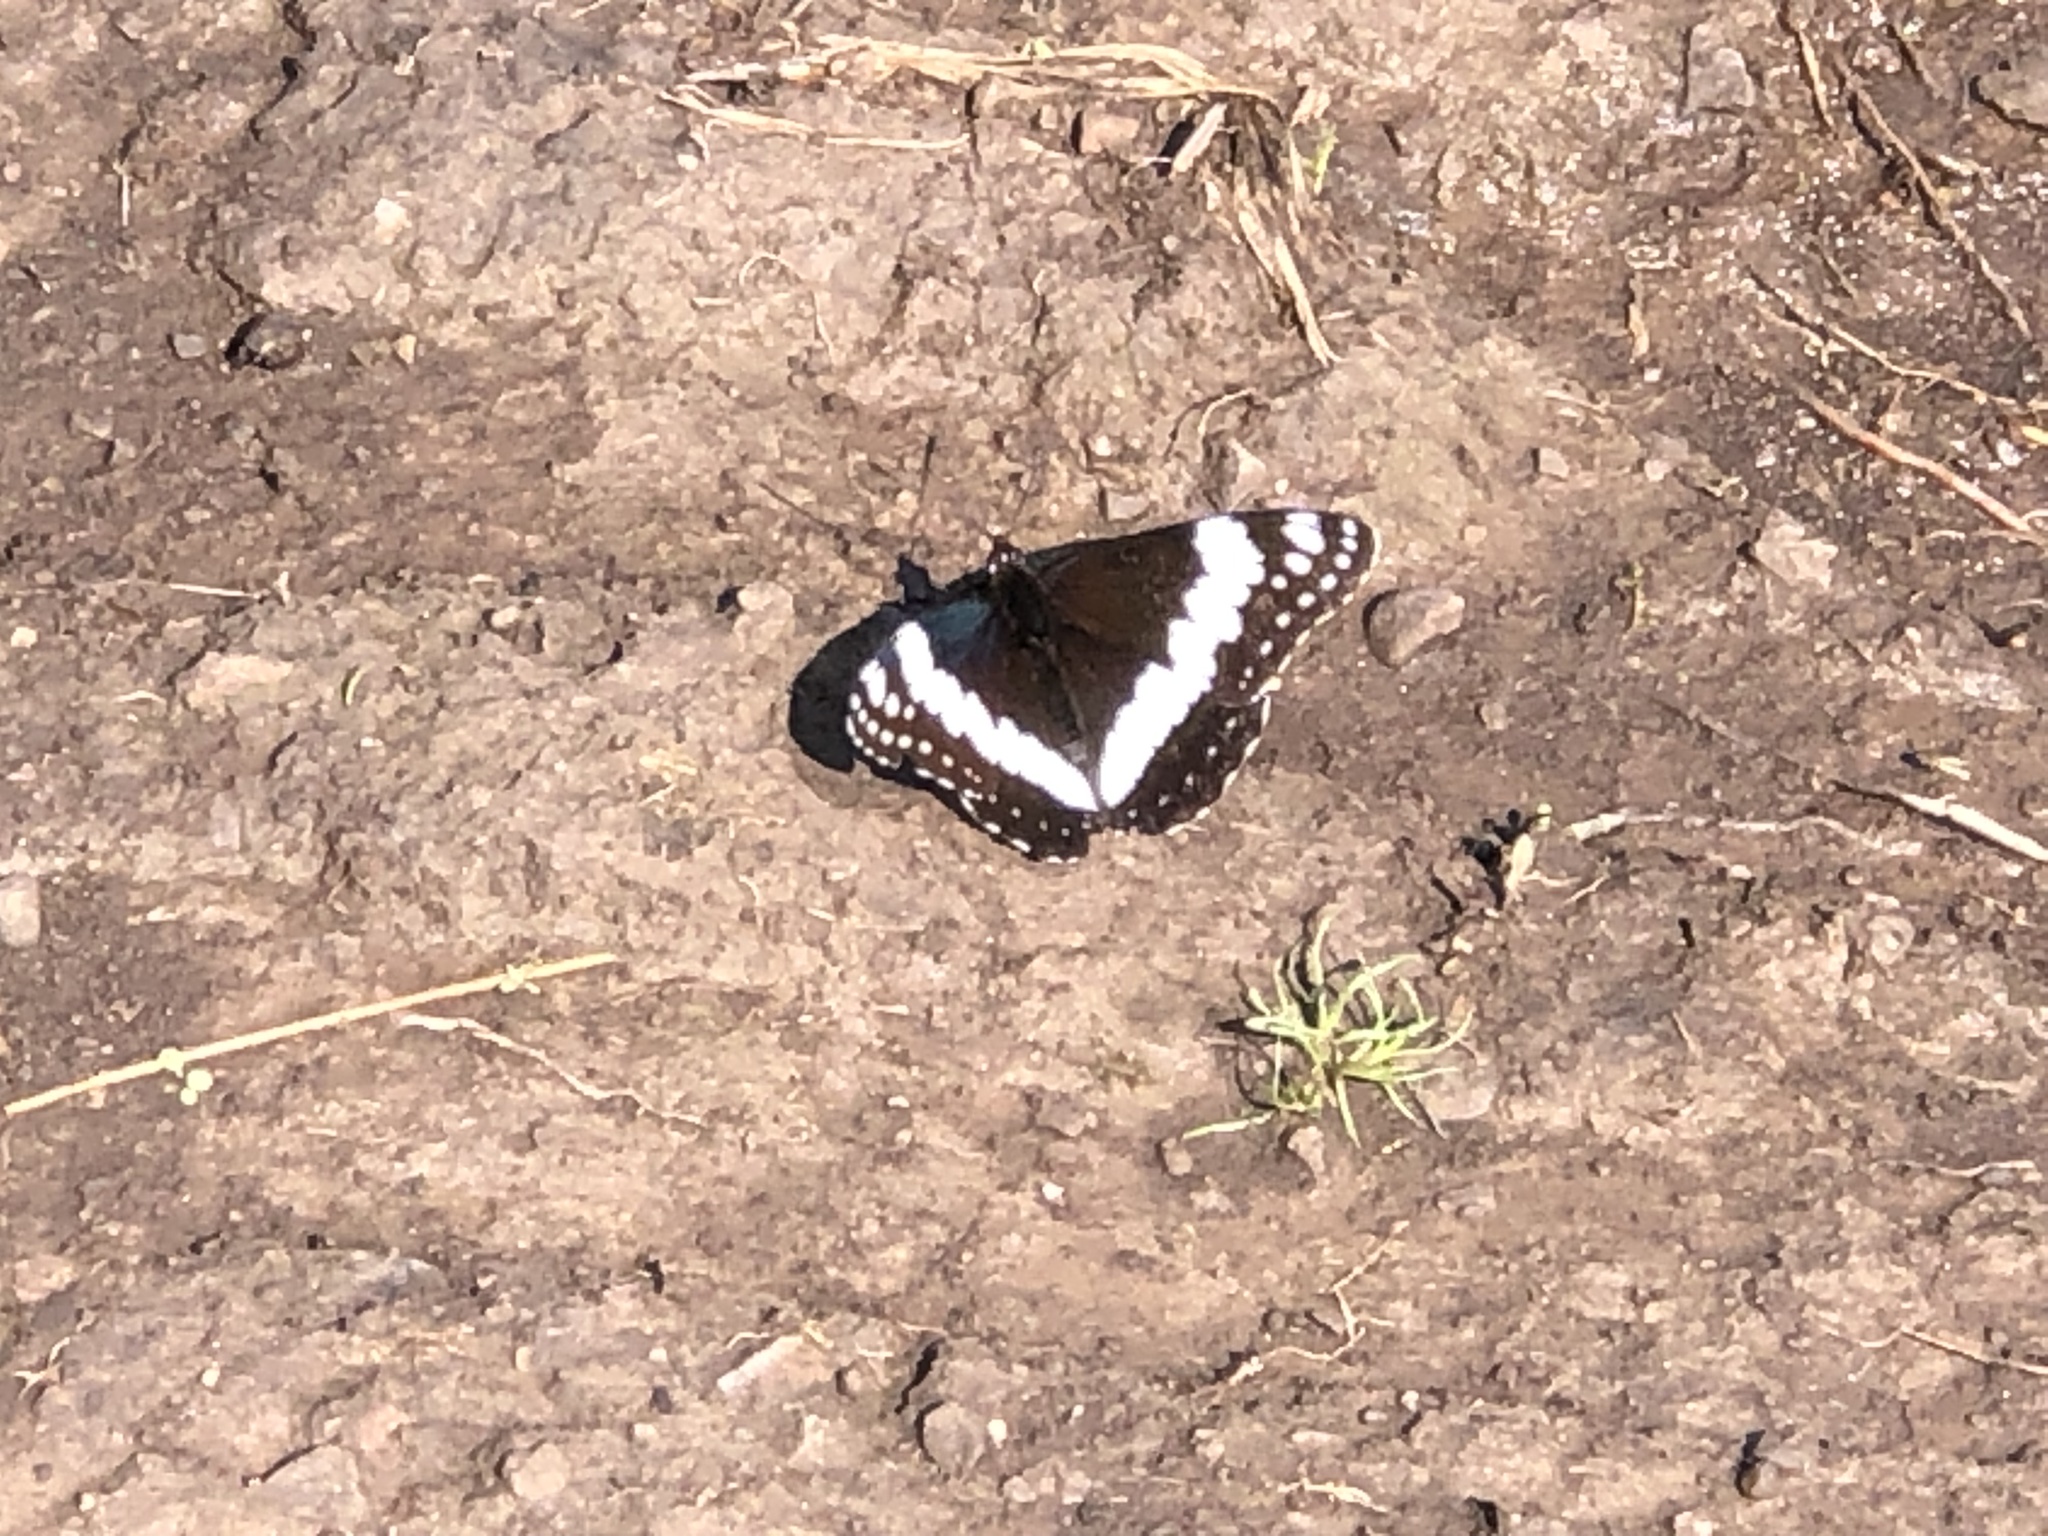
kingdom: Animalia
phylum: Arthropoda
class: Insecta
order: Lepidoptera
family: Nymphalidae
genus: Limenitis
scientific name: Limenitis weidemeyerii
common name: Weidemeyer's admiral
